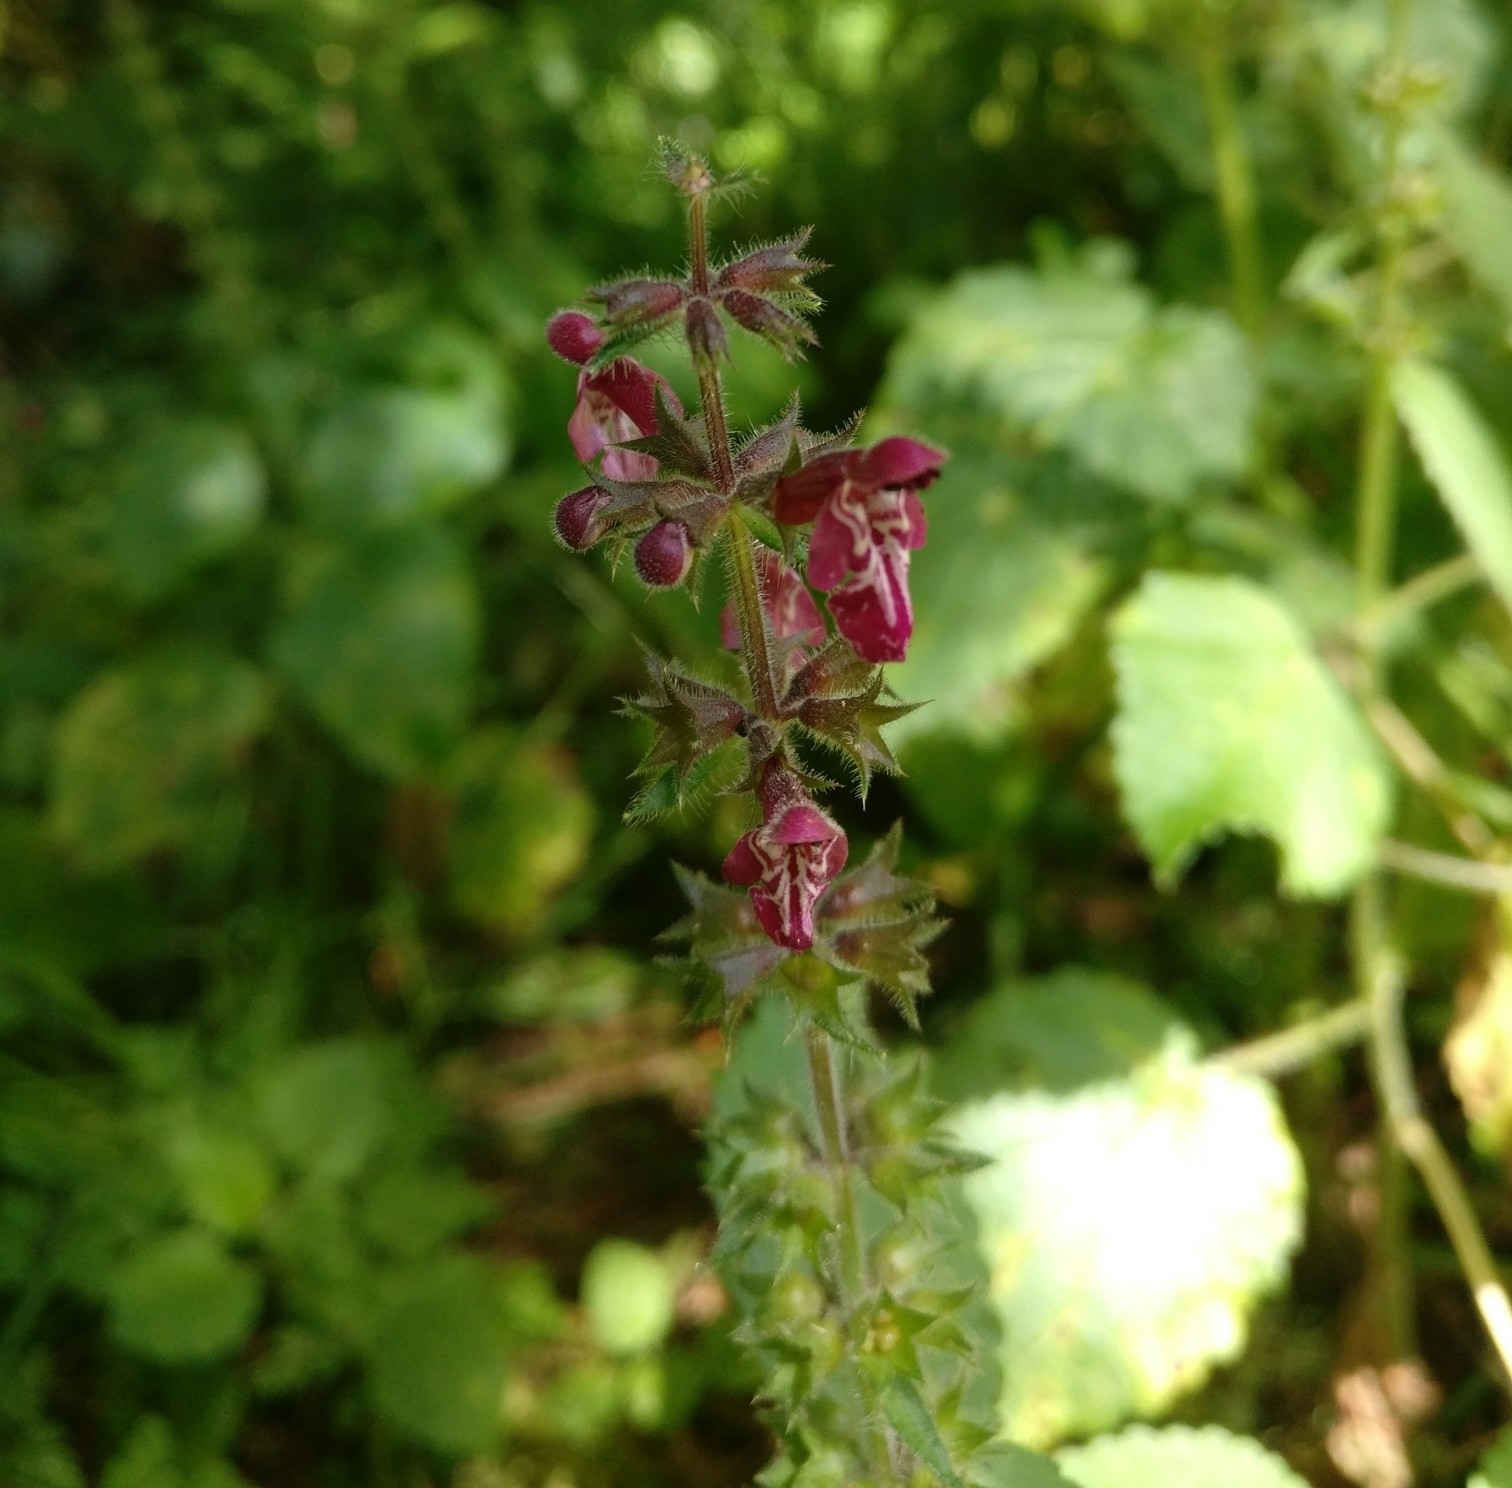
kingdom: Plantae
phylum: Tracheophyta
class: Magnoliopsida
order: Lamiales
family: Lamiaceae
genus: Stachys
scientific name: Stachys sylvatica
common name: Hedge woundwort
